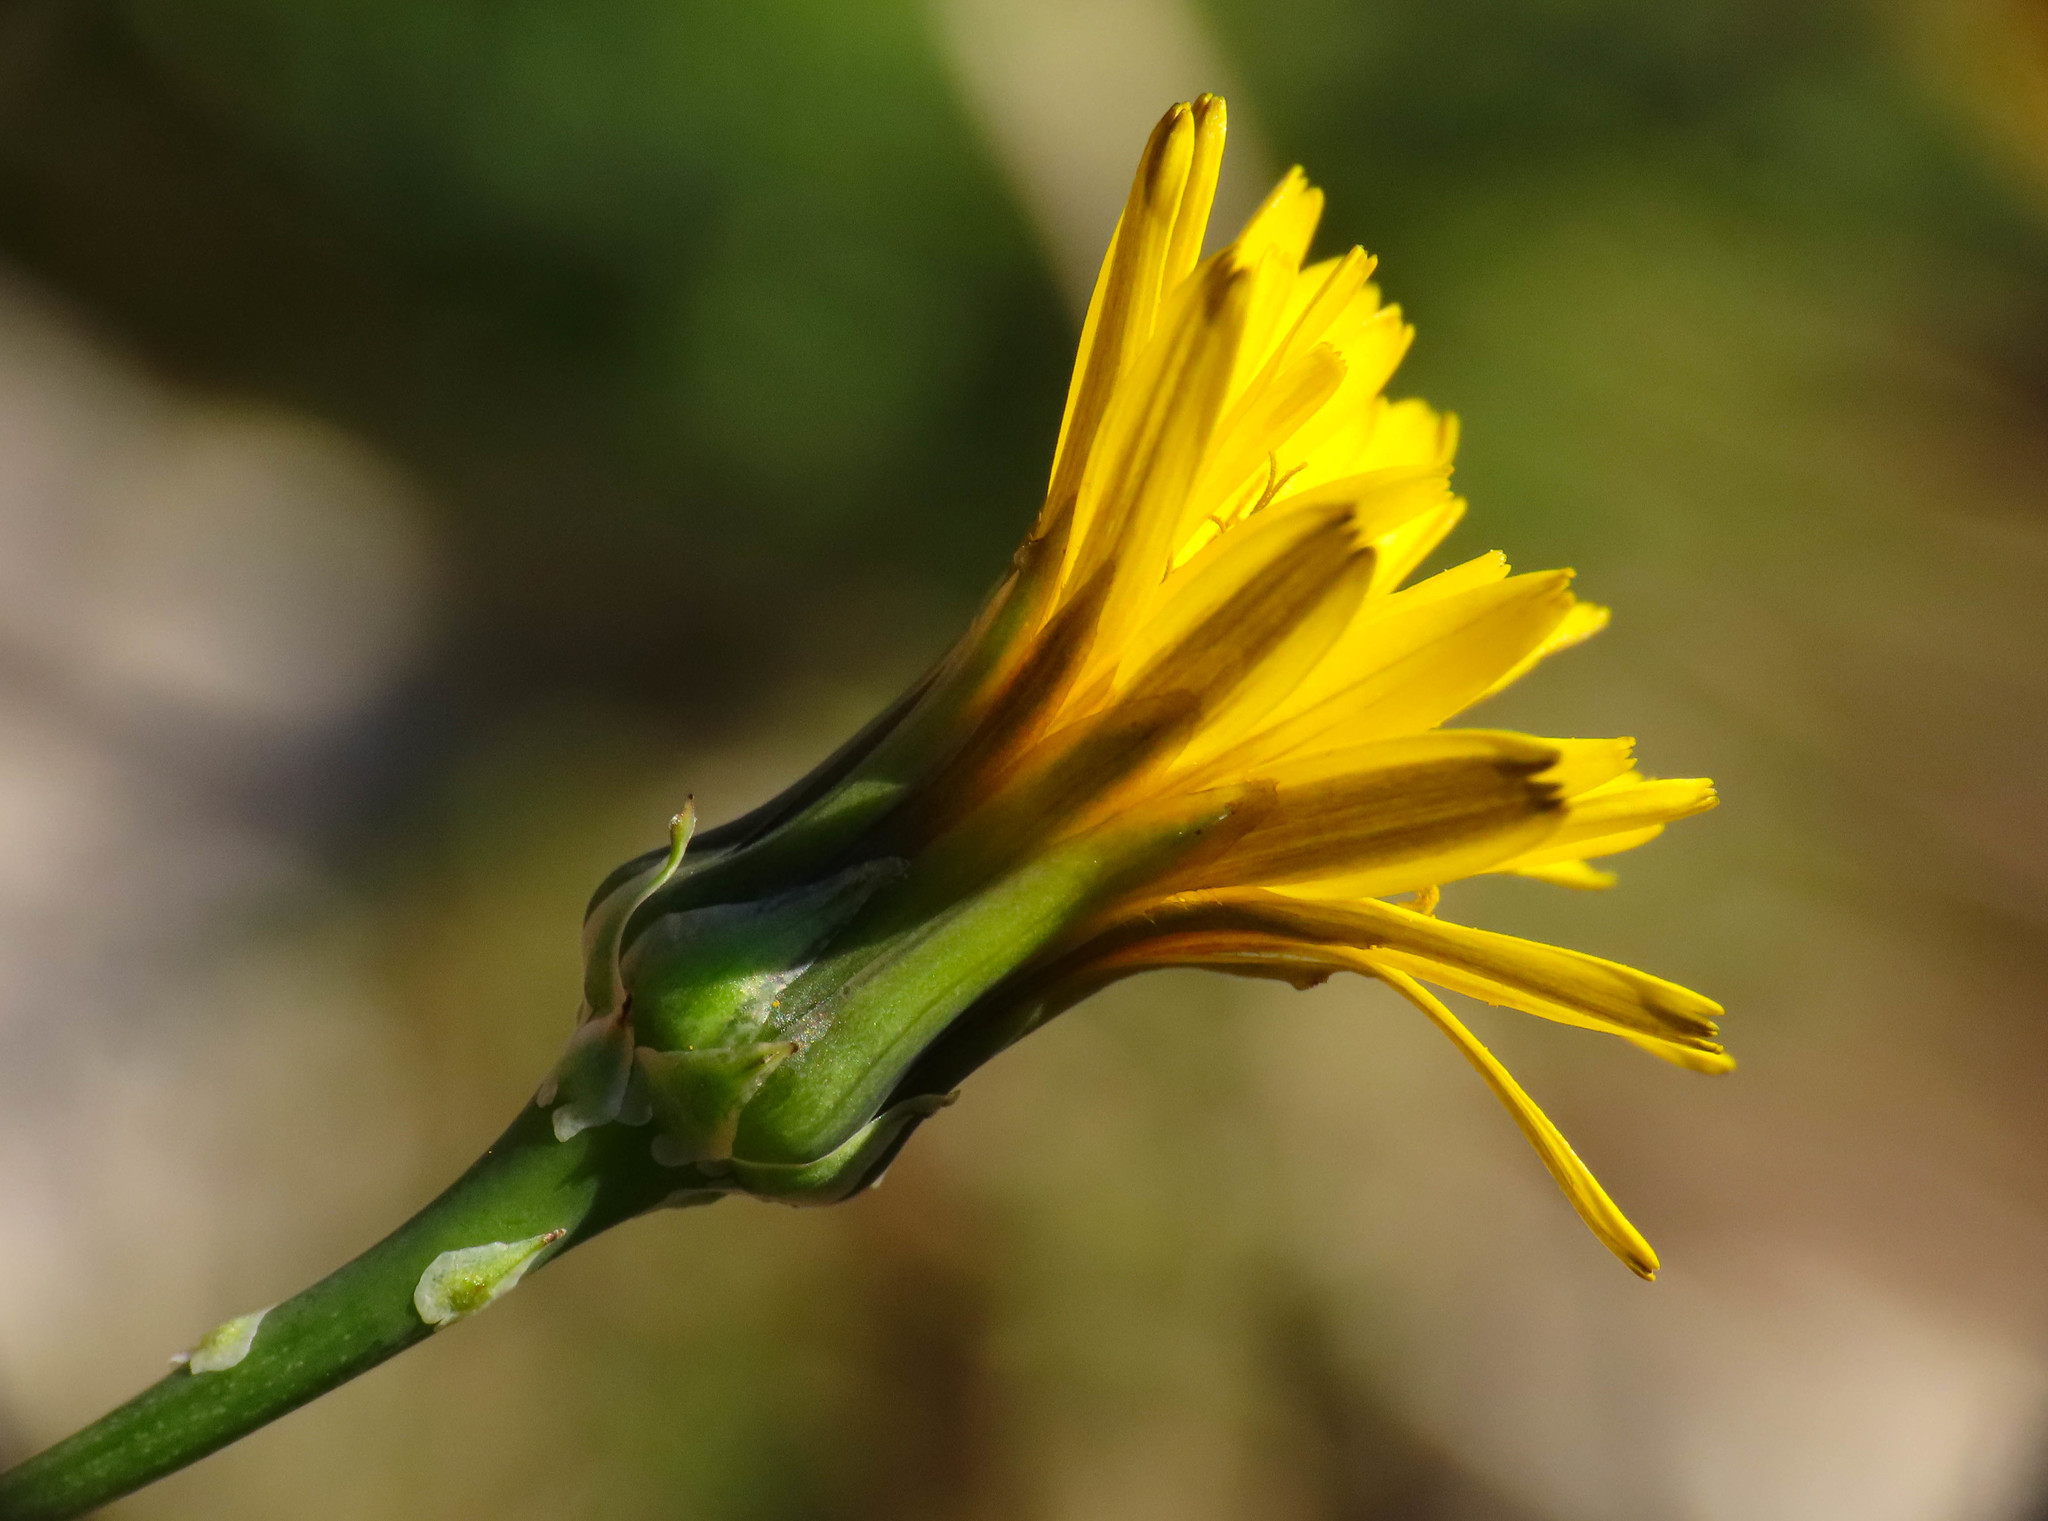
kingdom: Plantae
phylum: Tracheophyta
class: Magnoliopsida
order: Asterales
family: Asteraceae
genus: Reichardia
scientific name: Reichardia picroides
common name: Common brighteyes
